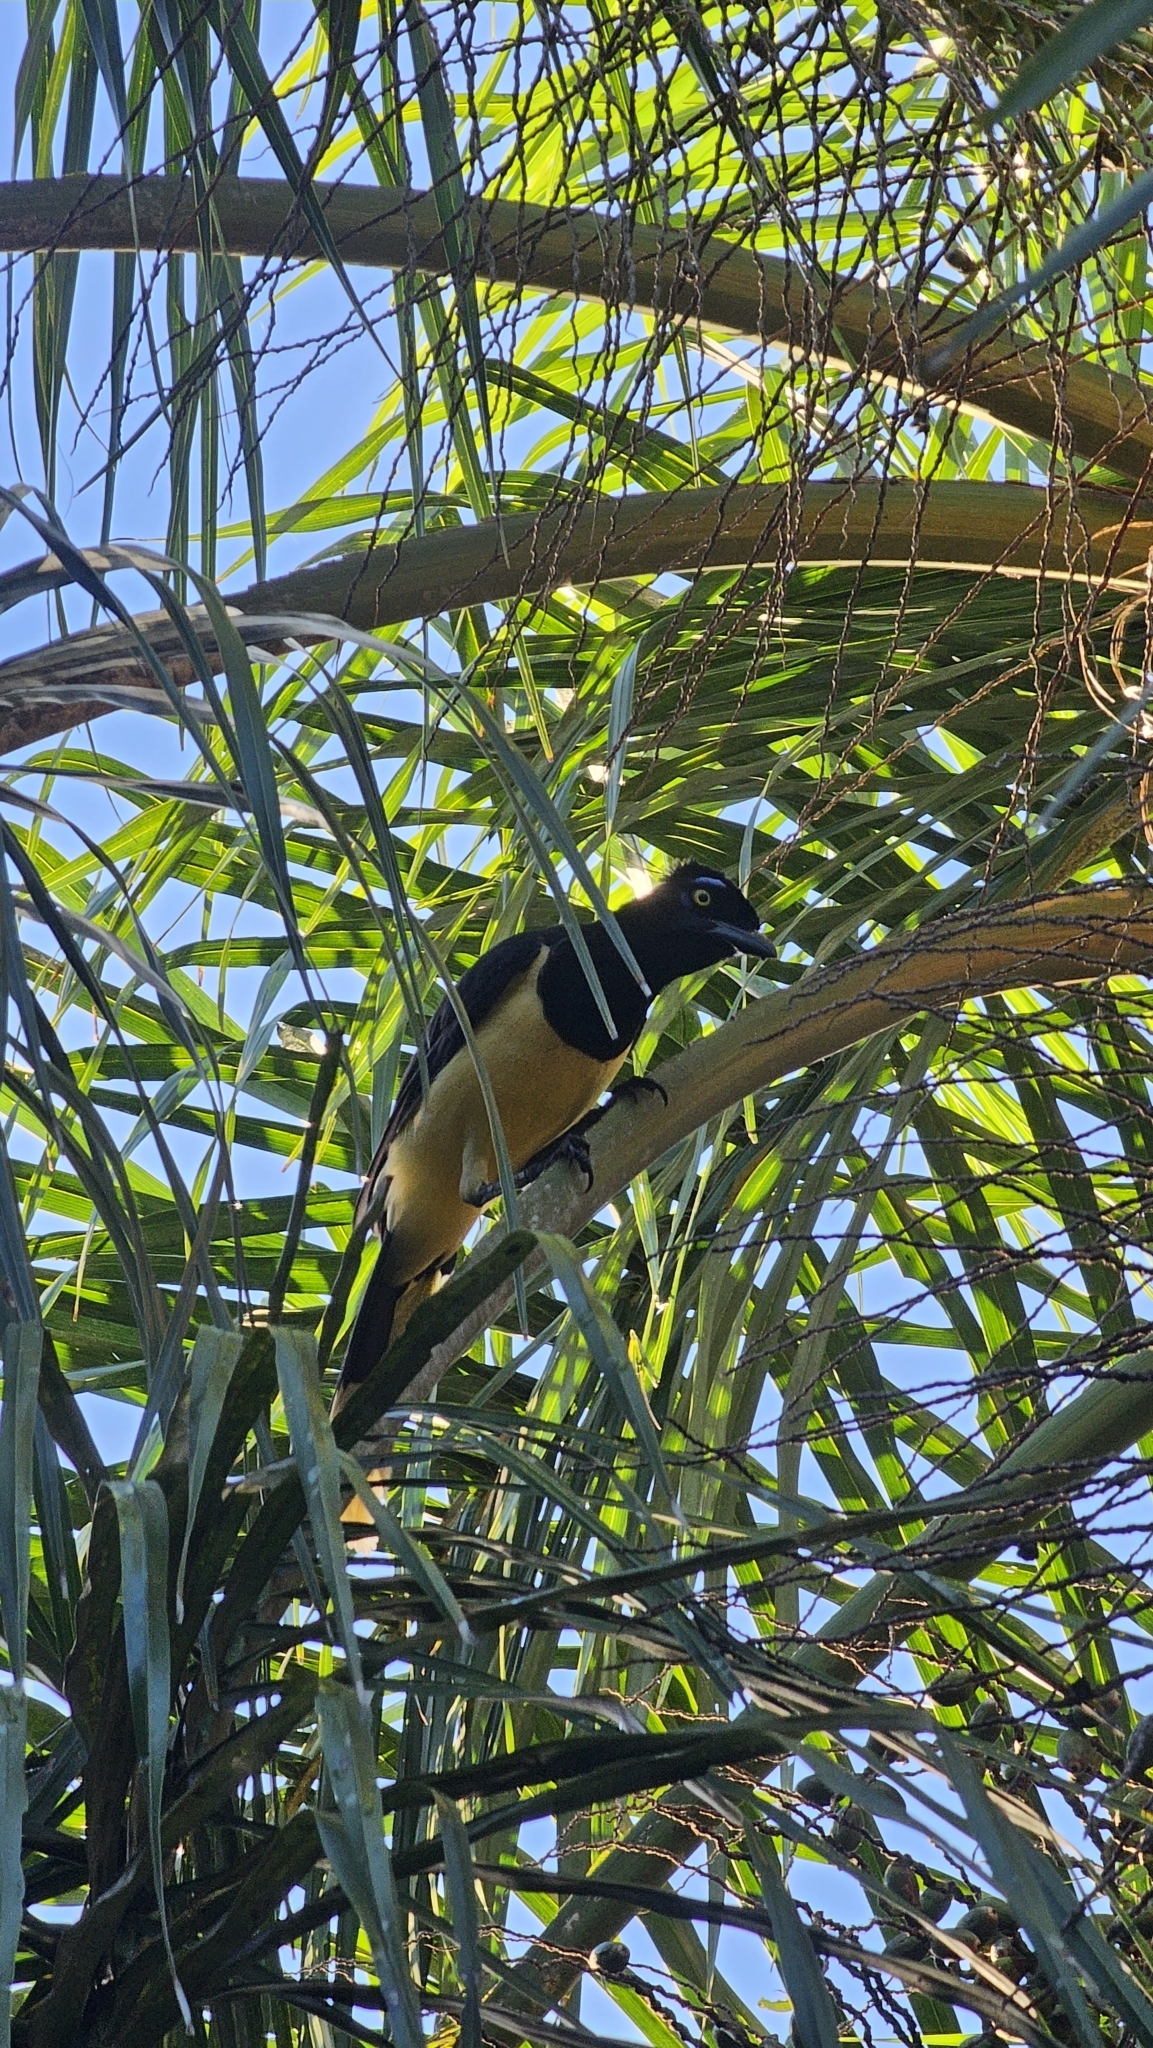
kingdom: Animalia
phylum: Chordata
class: Aves
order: Passeriformes
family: Corvidae
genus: Cyanocorax
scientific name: Cyanocorax chrysops
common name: Plush-crested jay
